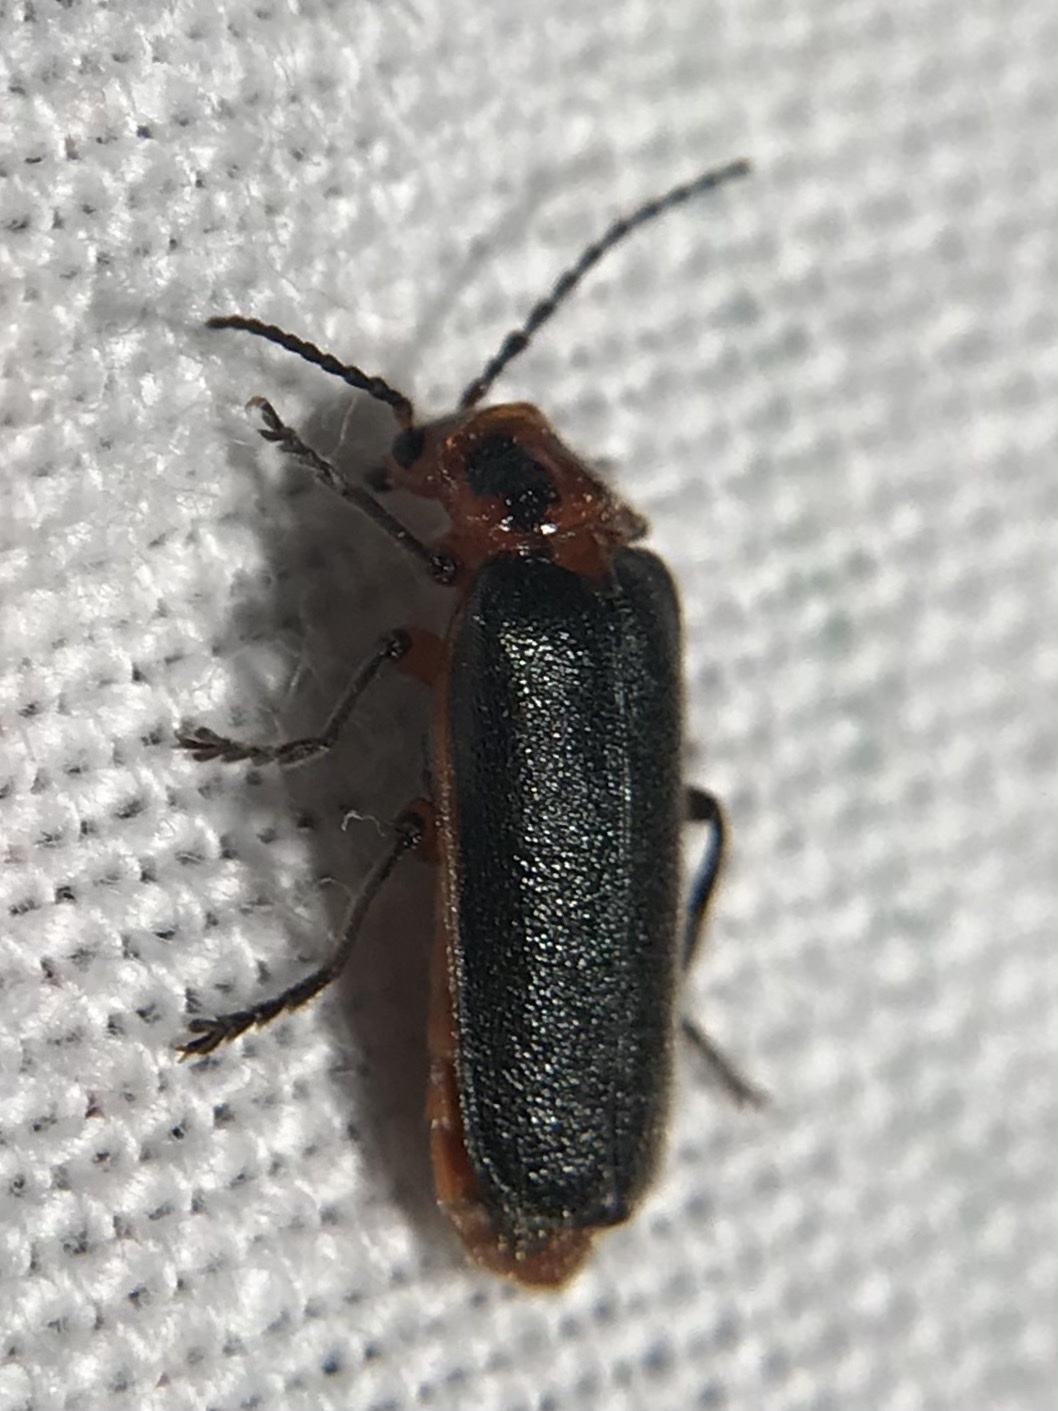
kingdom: Animalia
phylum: Arthropoda
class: Insecta
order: Coleoptera
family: Cantharidae
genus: Atalantycha
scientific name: Atalantycha bilineata
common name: Two-lined leatherwing
